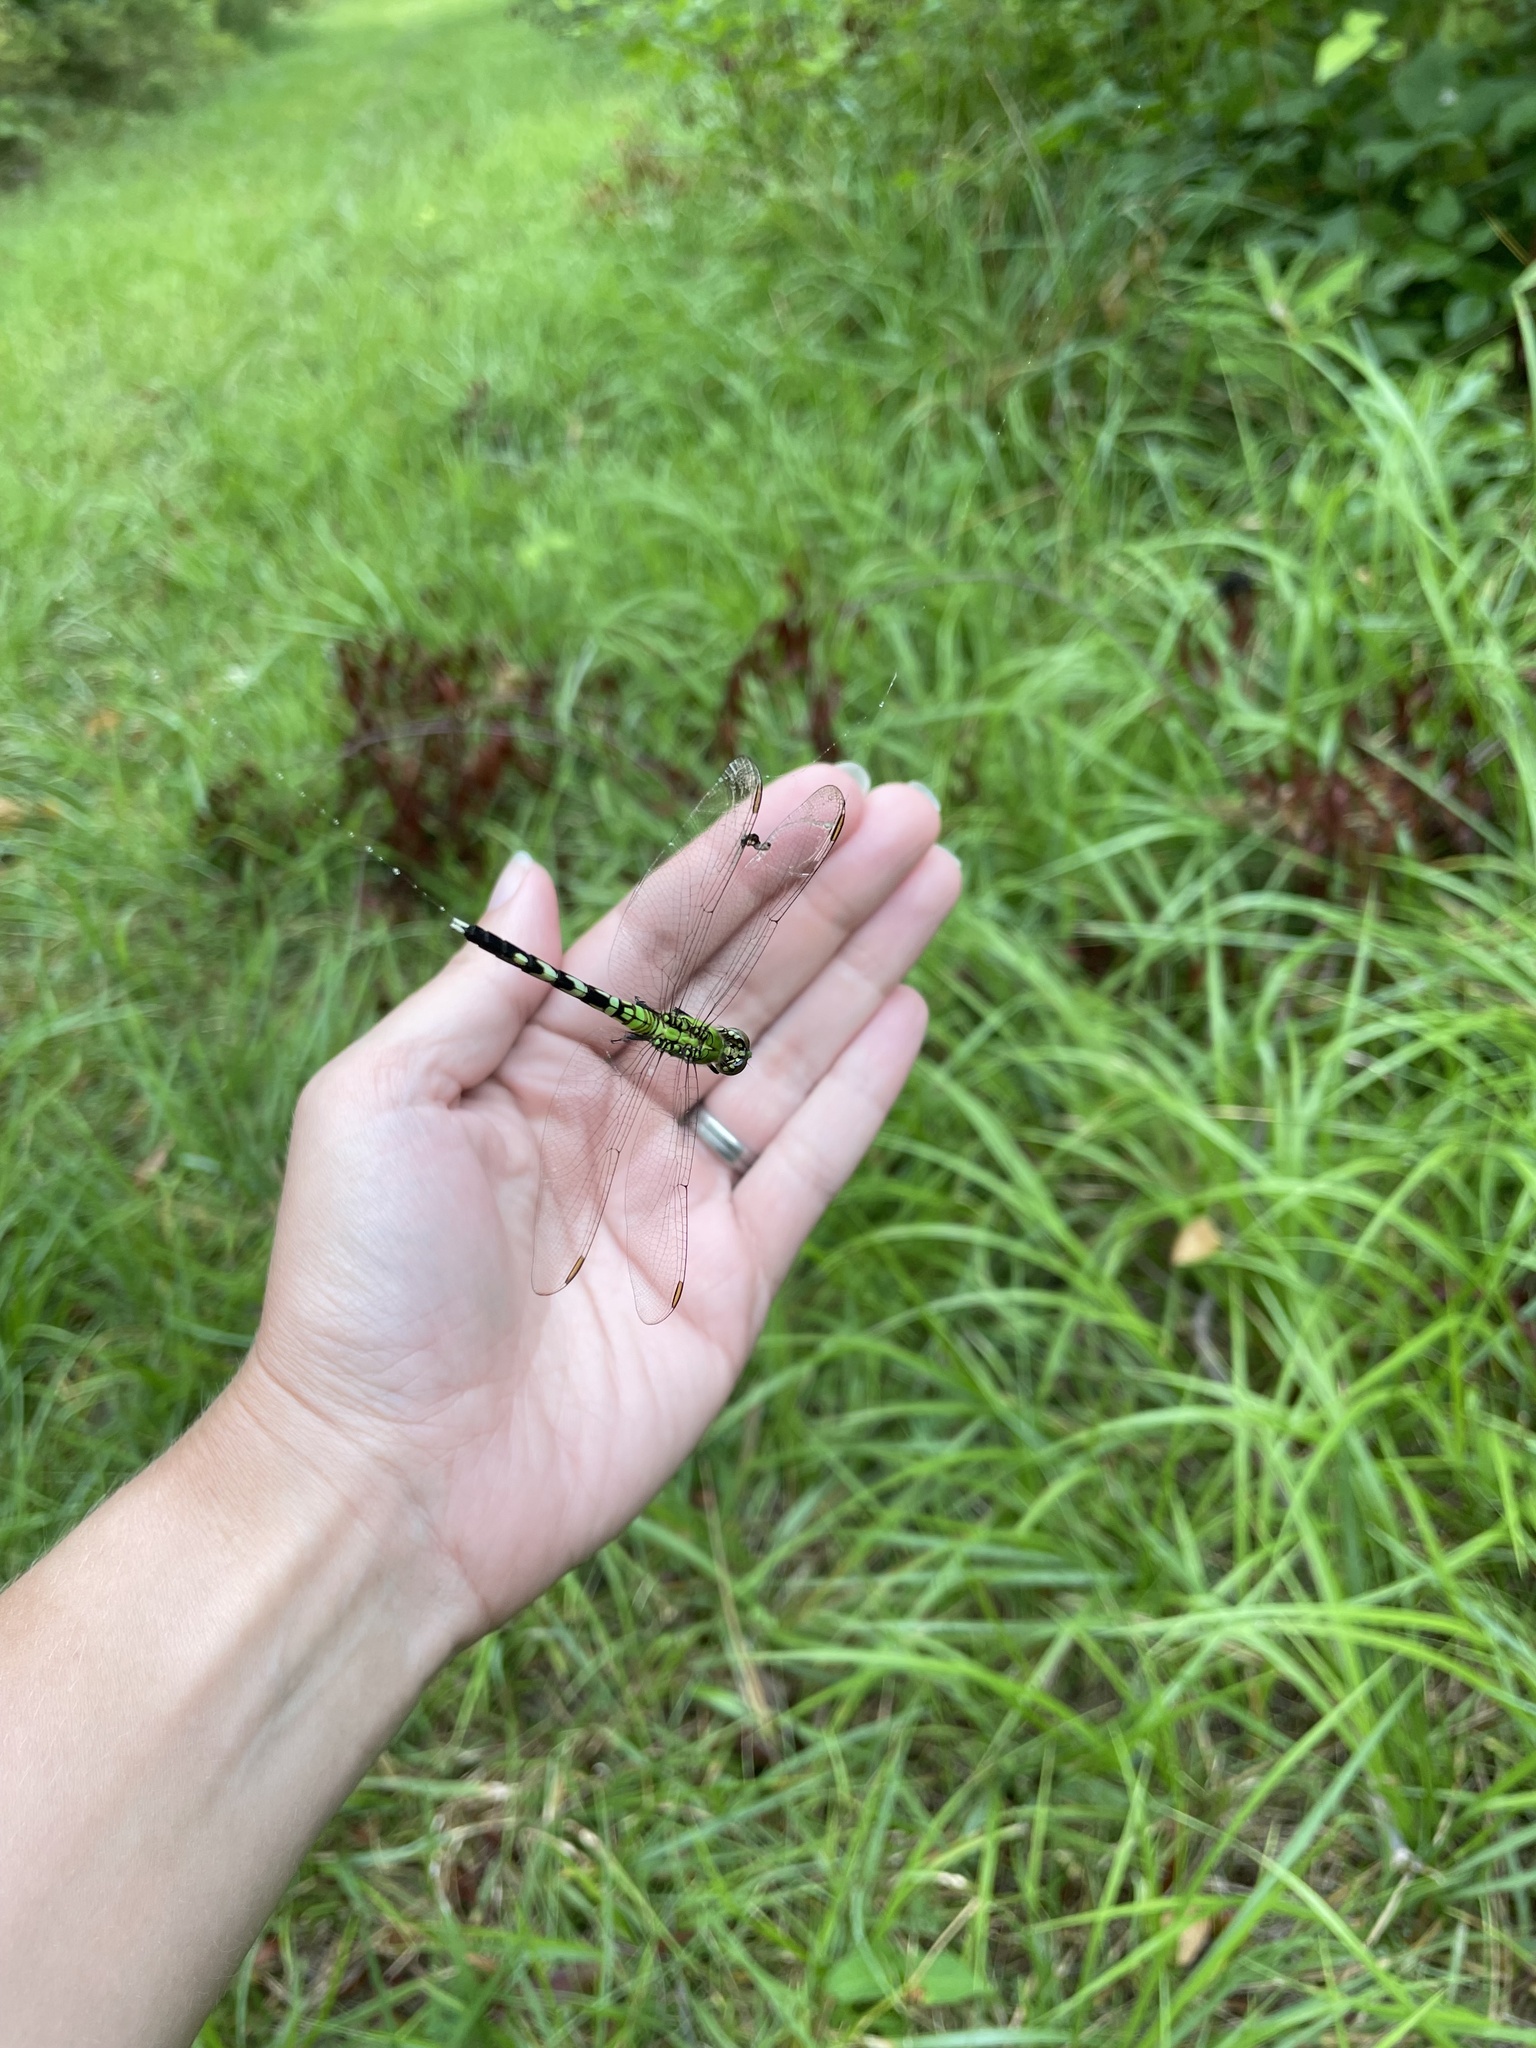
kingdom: Animalia
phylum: Arthropoda
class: Insecta
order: Odonata
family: Libellulidae
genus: Erythemis
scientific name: Erythemis simplicicollis
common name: Eastern pondhawk
